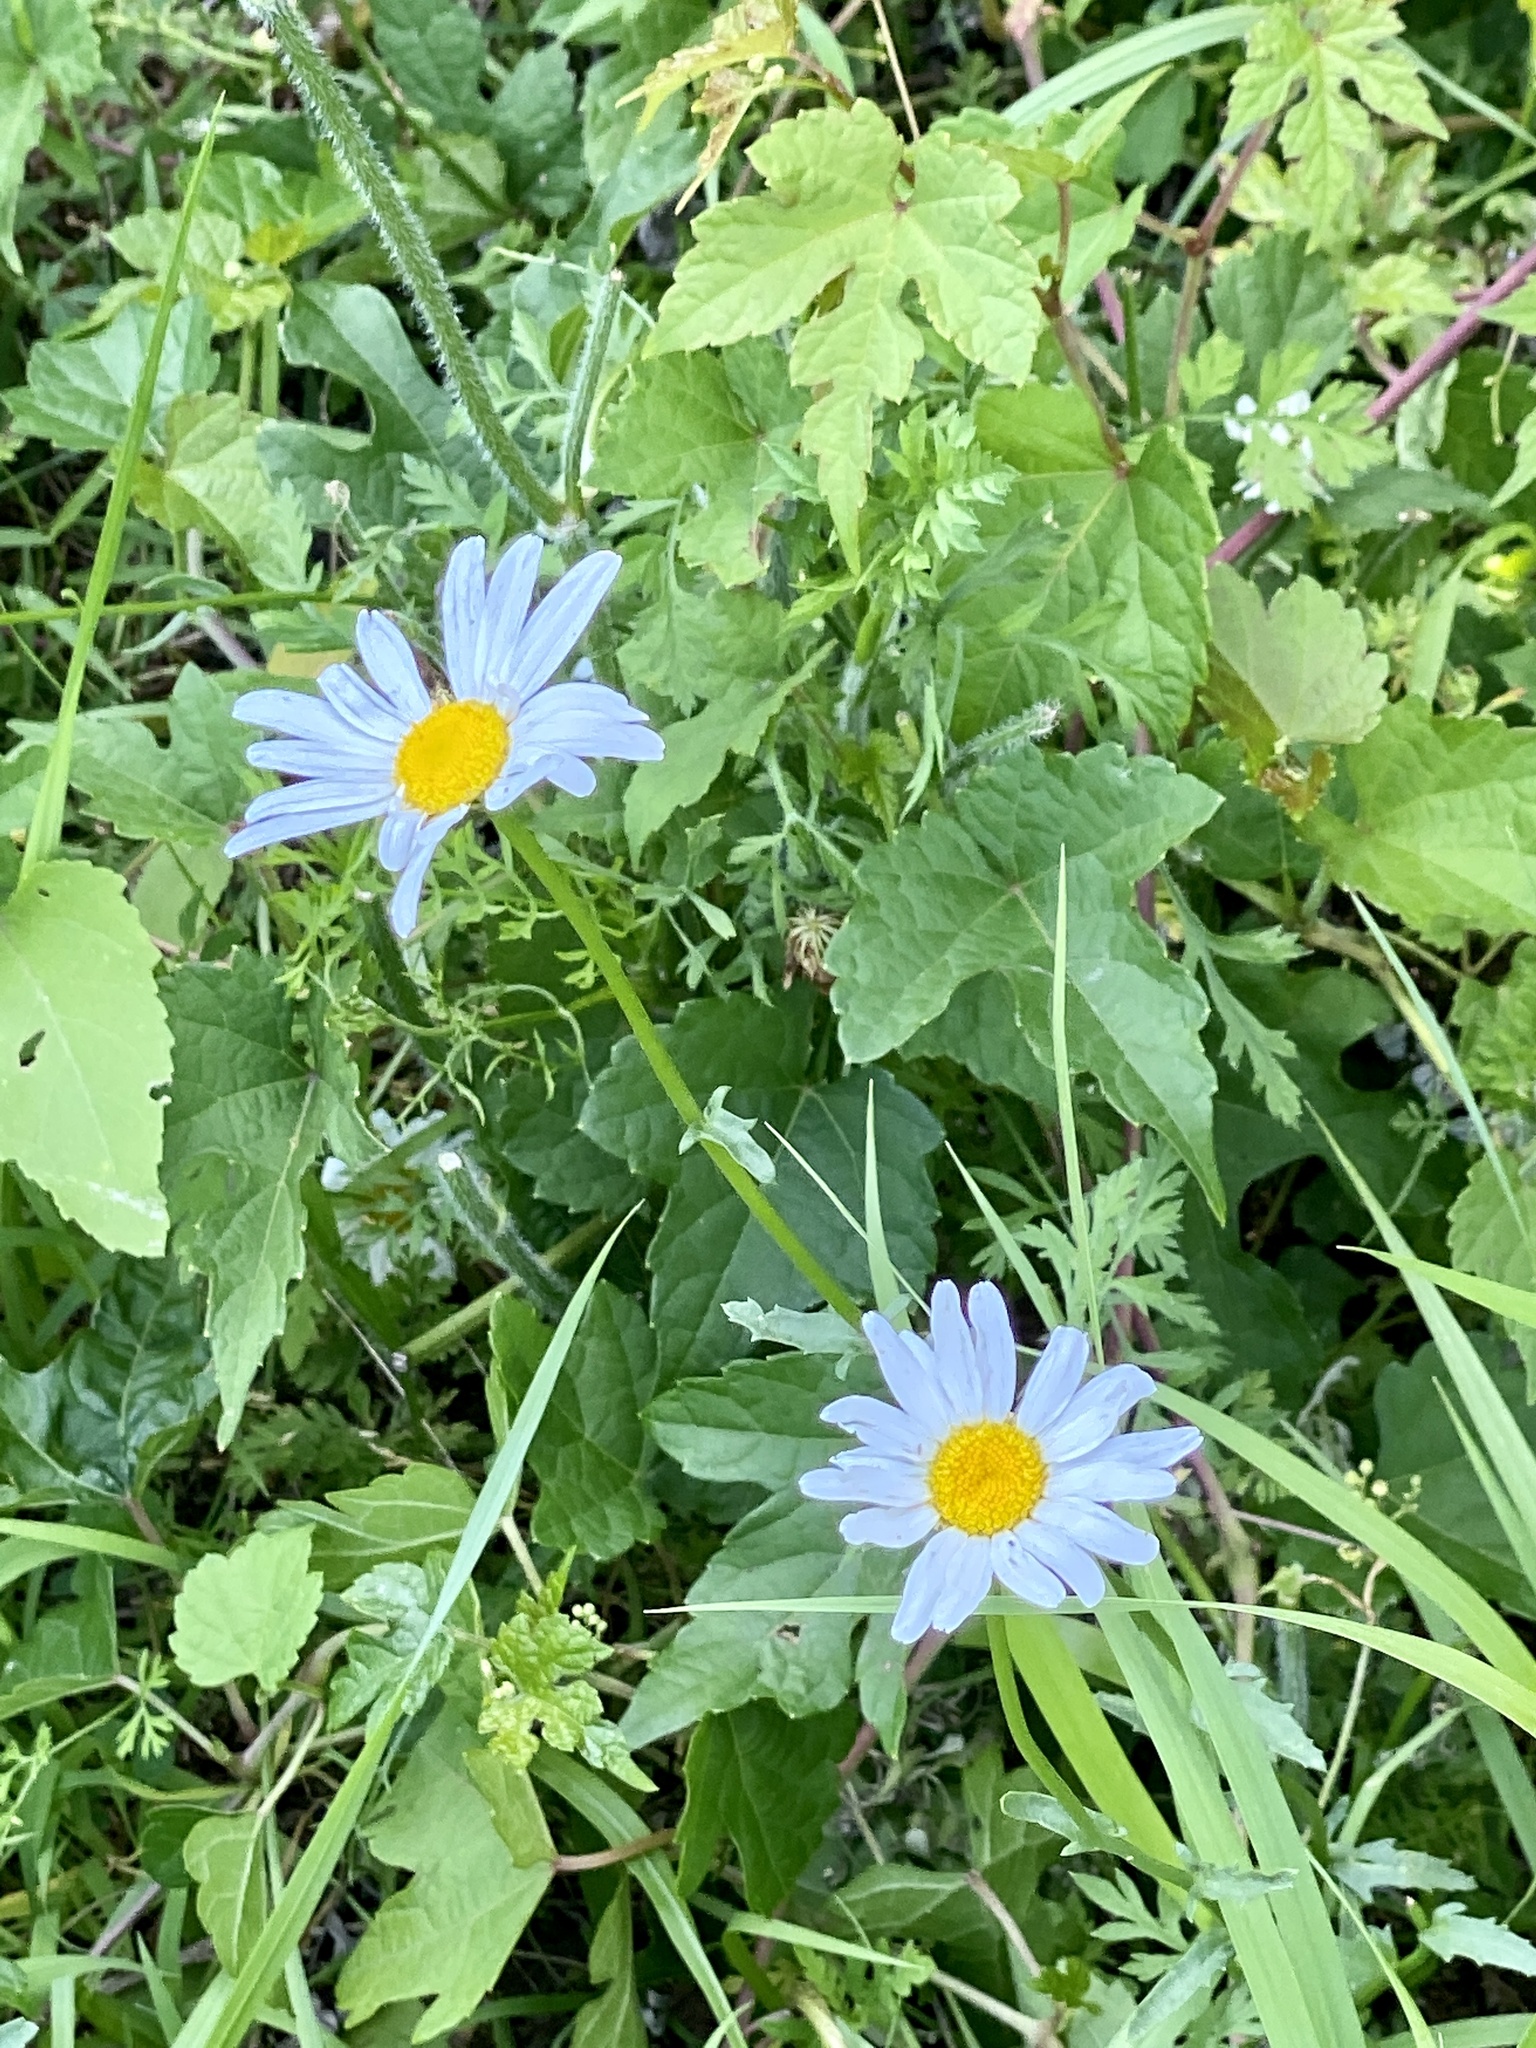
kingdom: Plantae
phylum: Tracheophyta
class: Magnoliopsida
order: Asterales
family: Asteraceae
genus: Leucanthemum
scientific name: Leucanthemum vulgare
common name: Oxeye daisy
